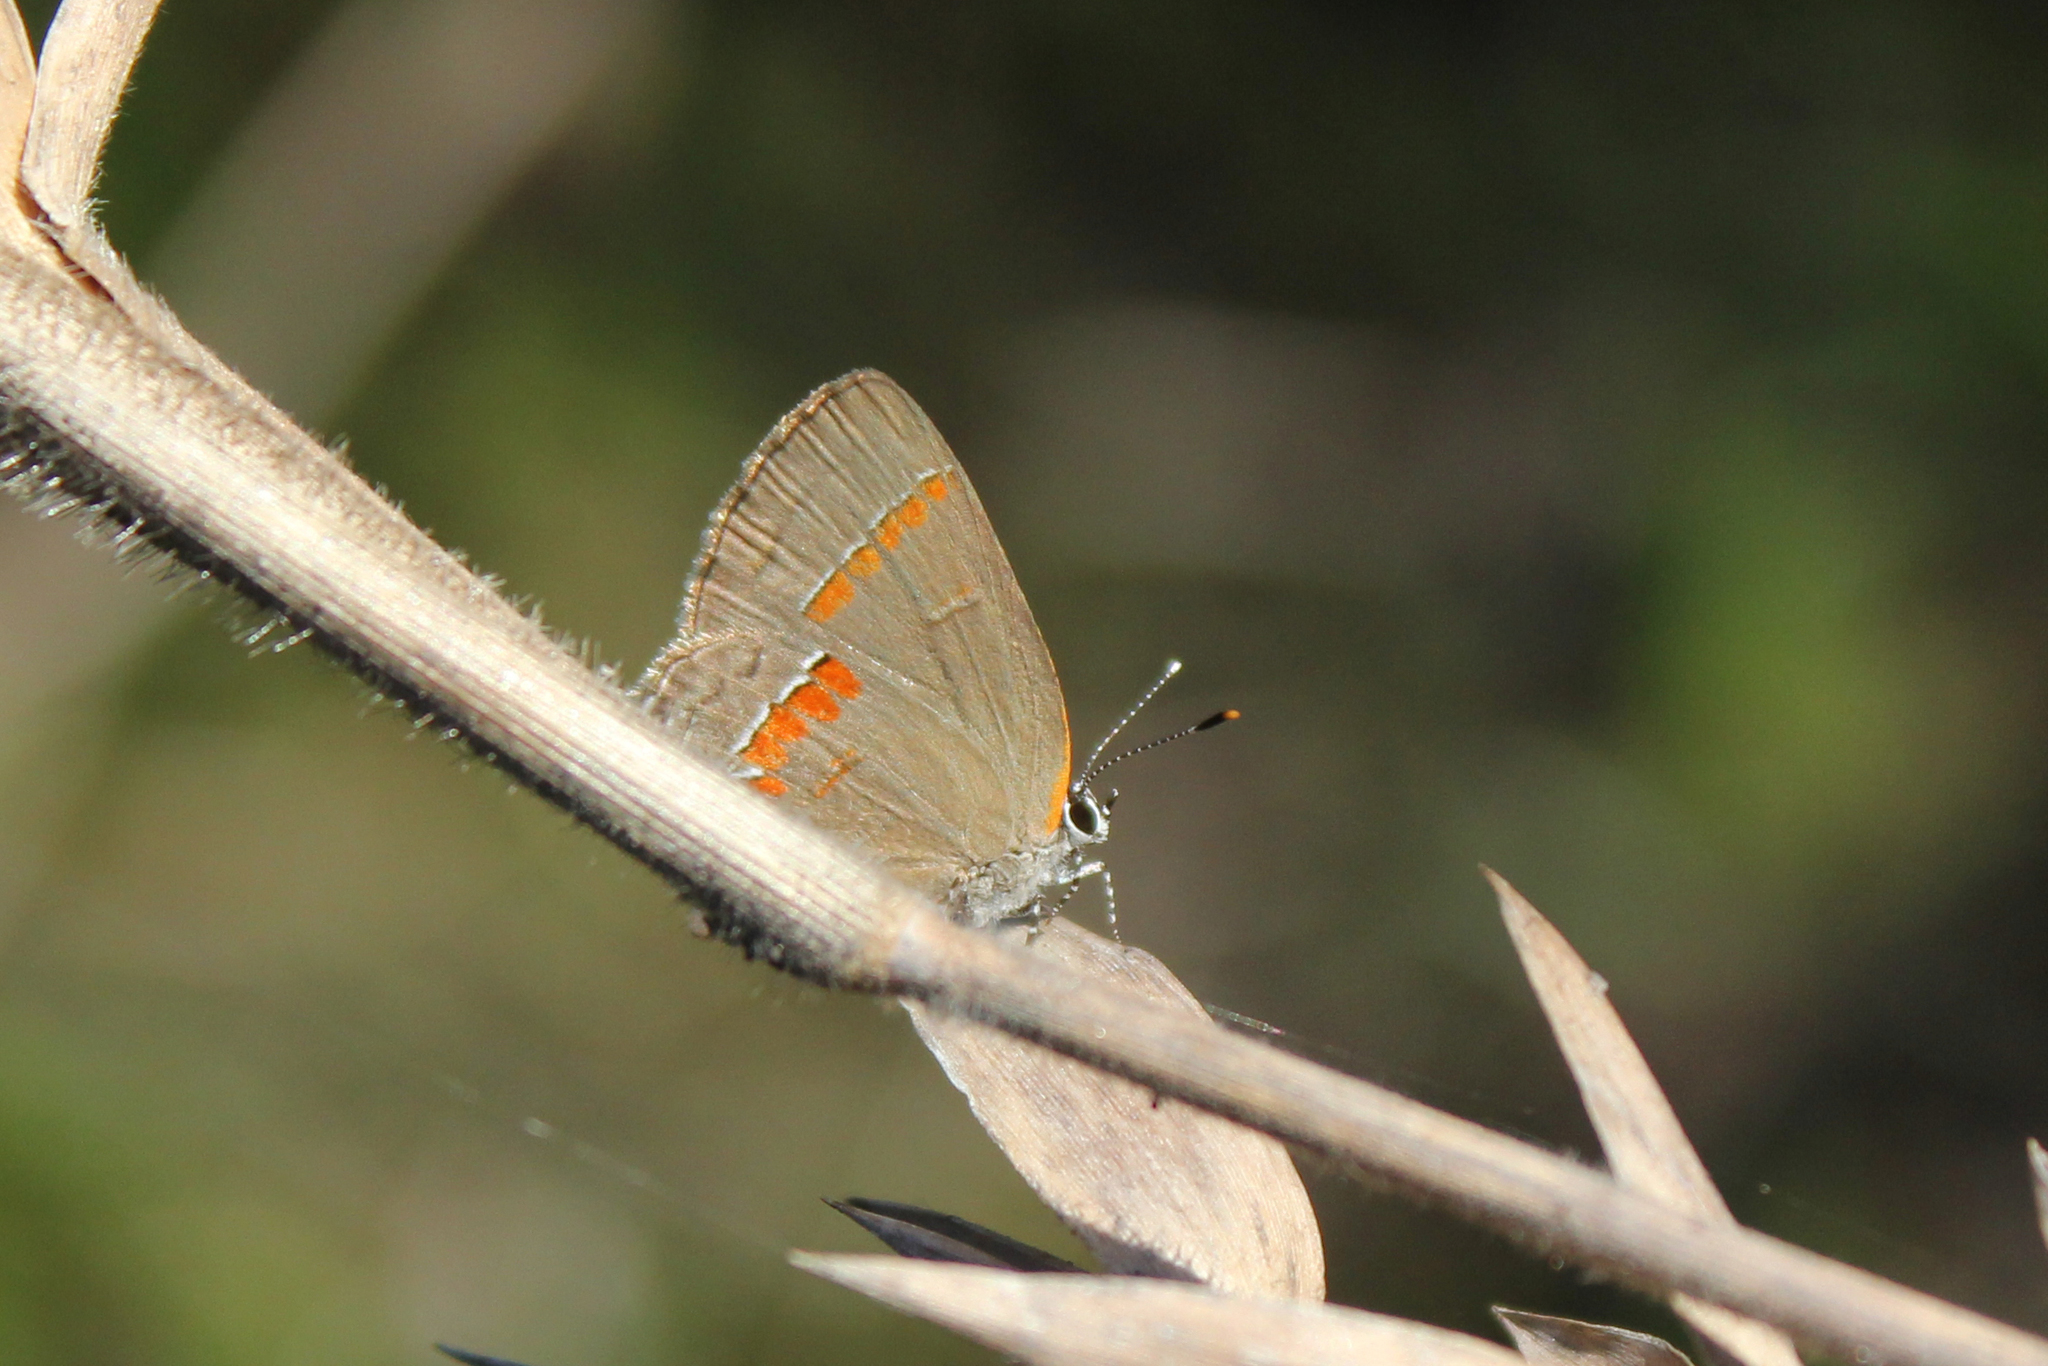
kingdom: Animalia
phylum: Arthropoda
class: Insecta
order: Lepidoptera
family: Lycaenidae
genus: Calycopis
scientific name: Calycopis cecrops
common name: Red-banded hairstreak
